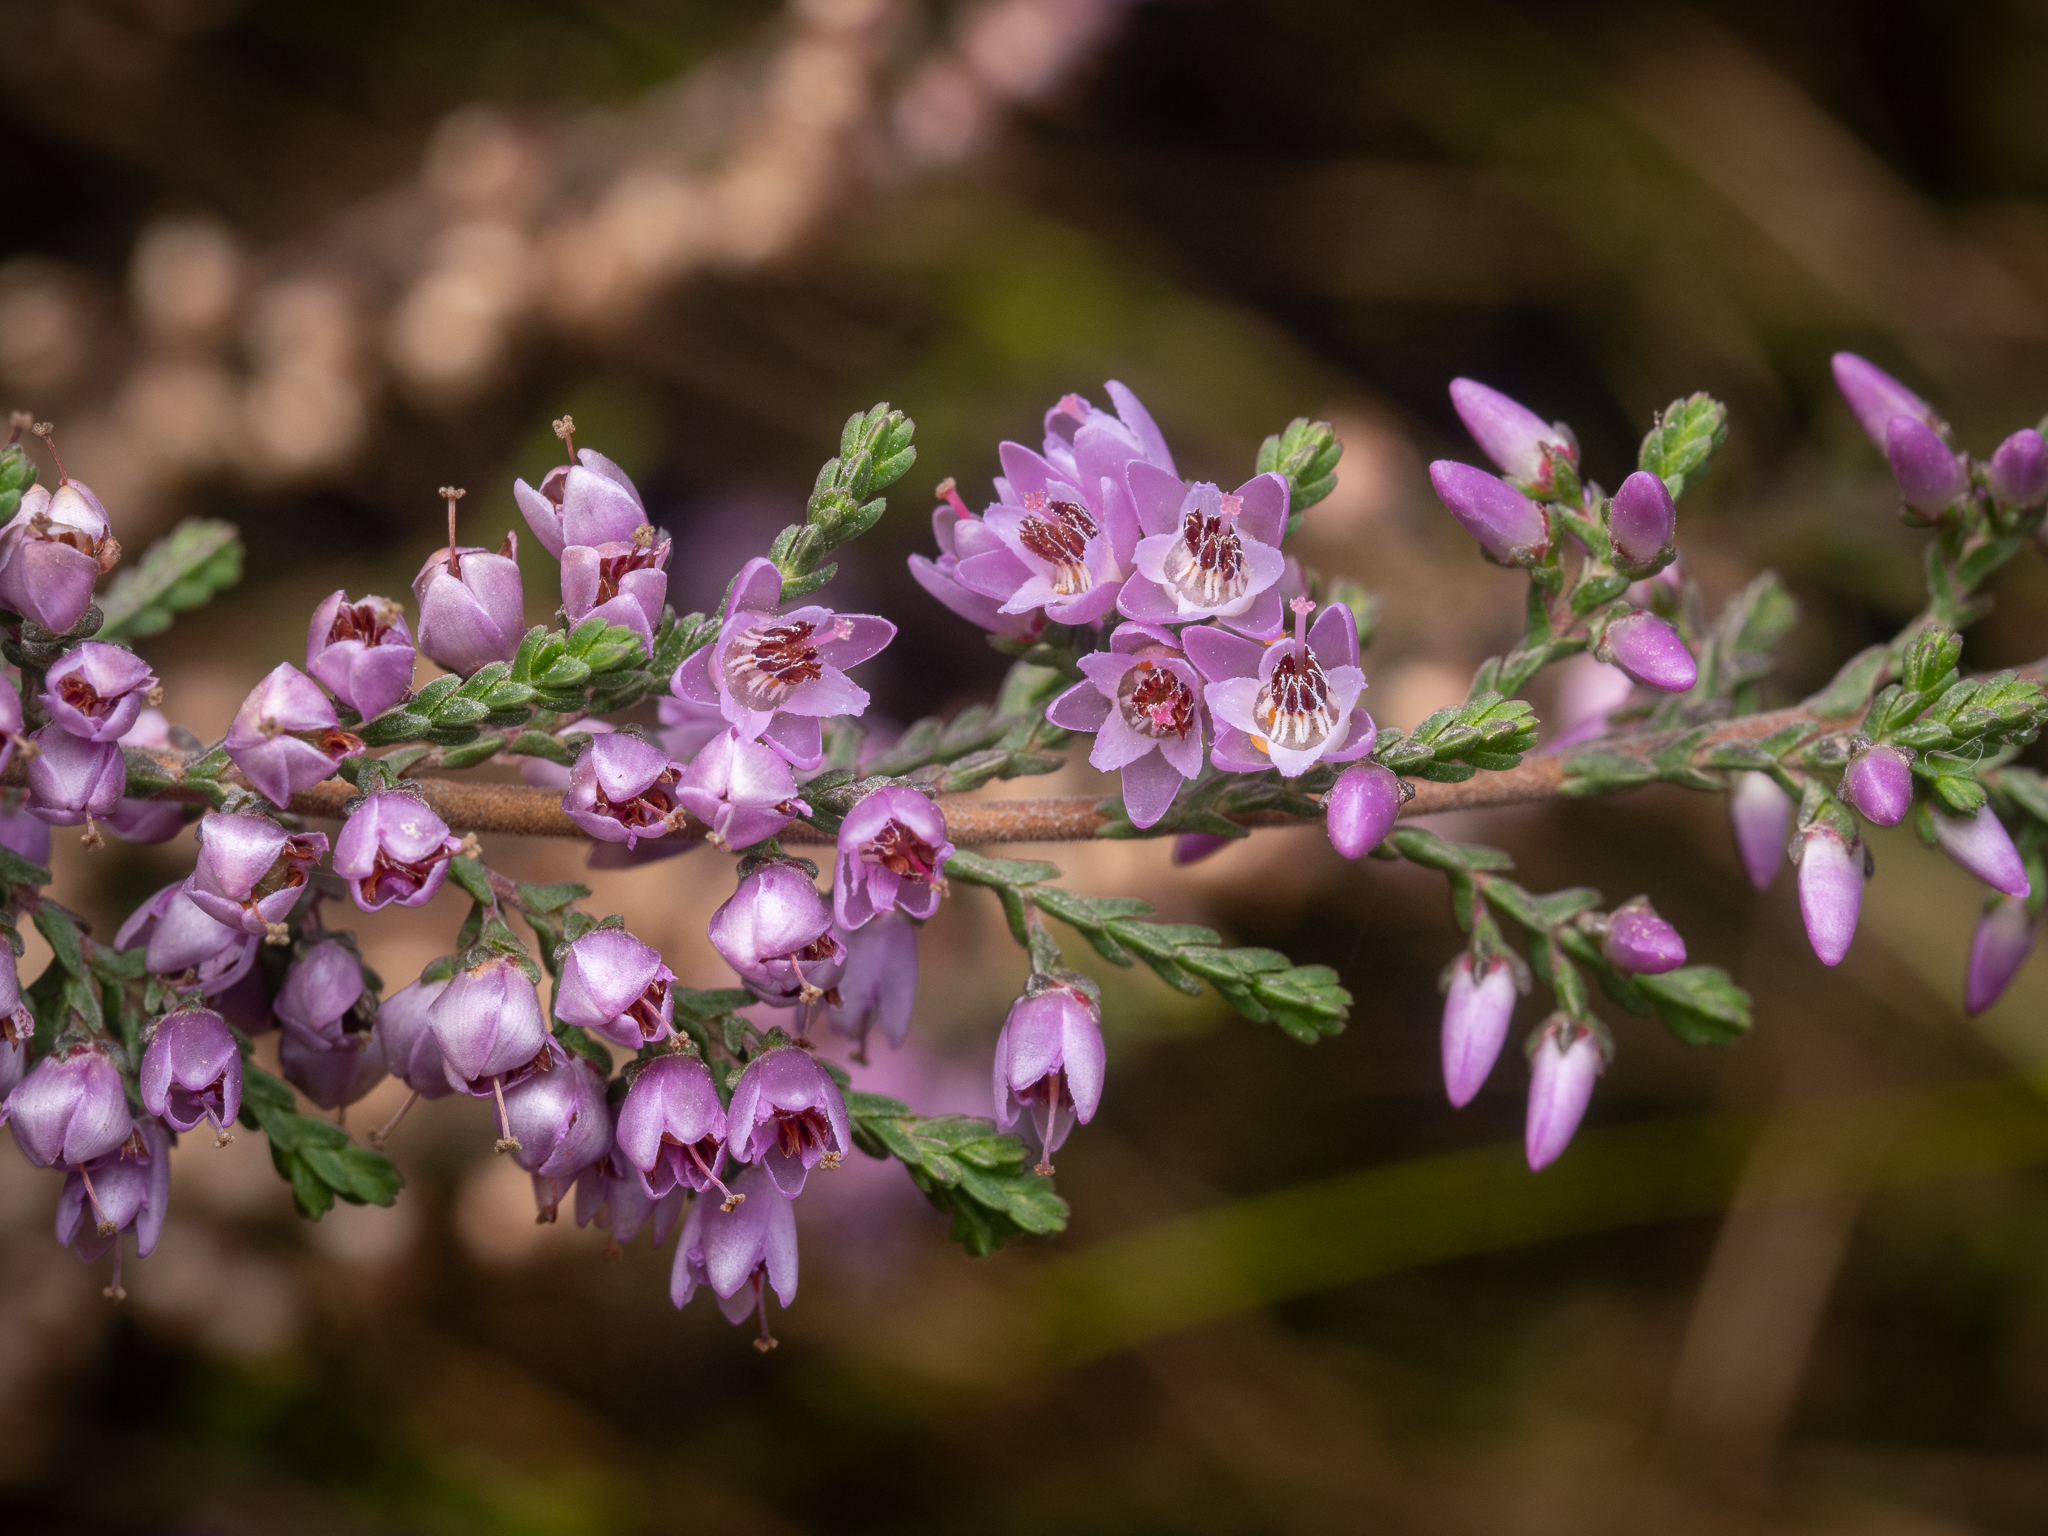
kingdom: Plantae
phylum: Tracheophyta
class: Magnoliopsida
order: Ericales
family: Ericaceae
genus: Calluna
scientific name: Calluna vulgaris
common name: Heather
